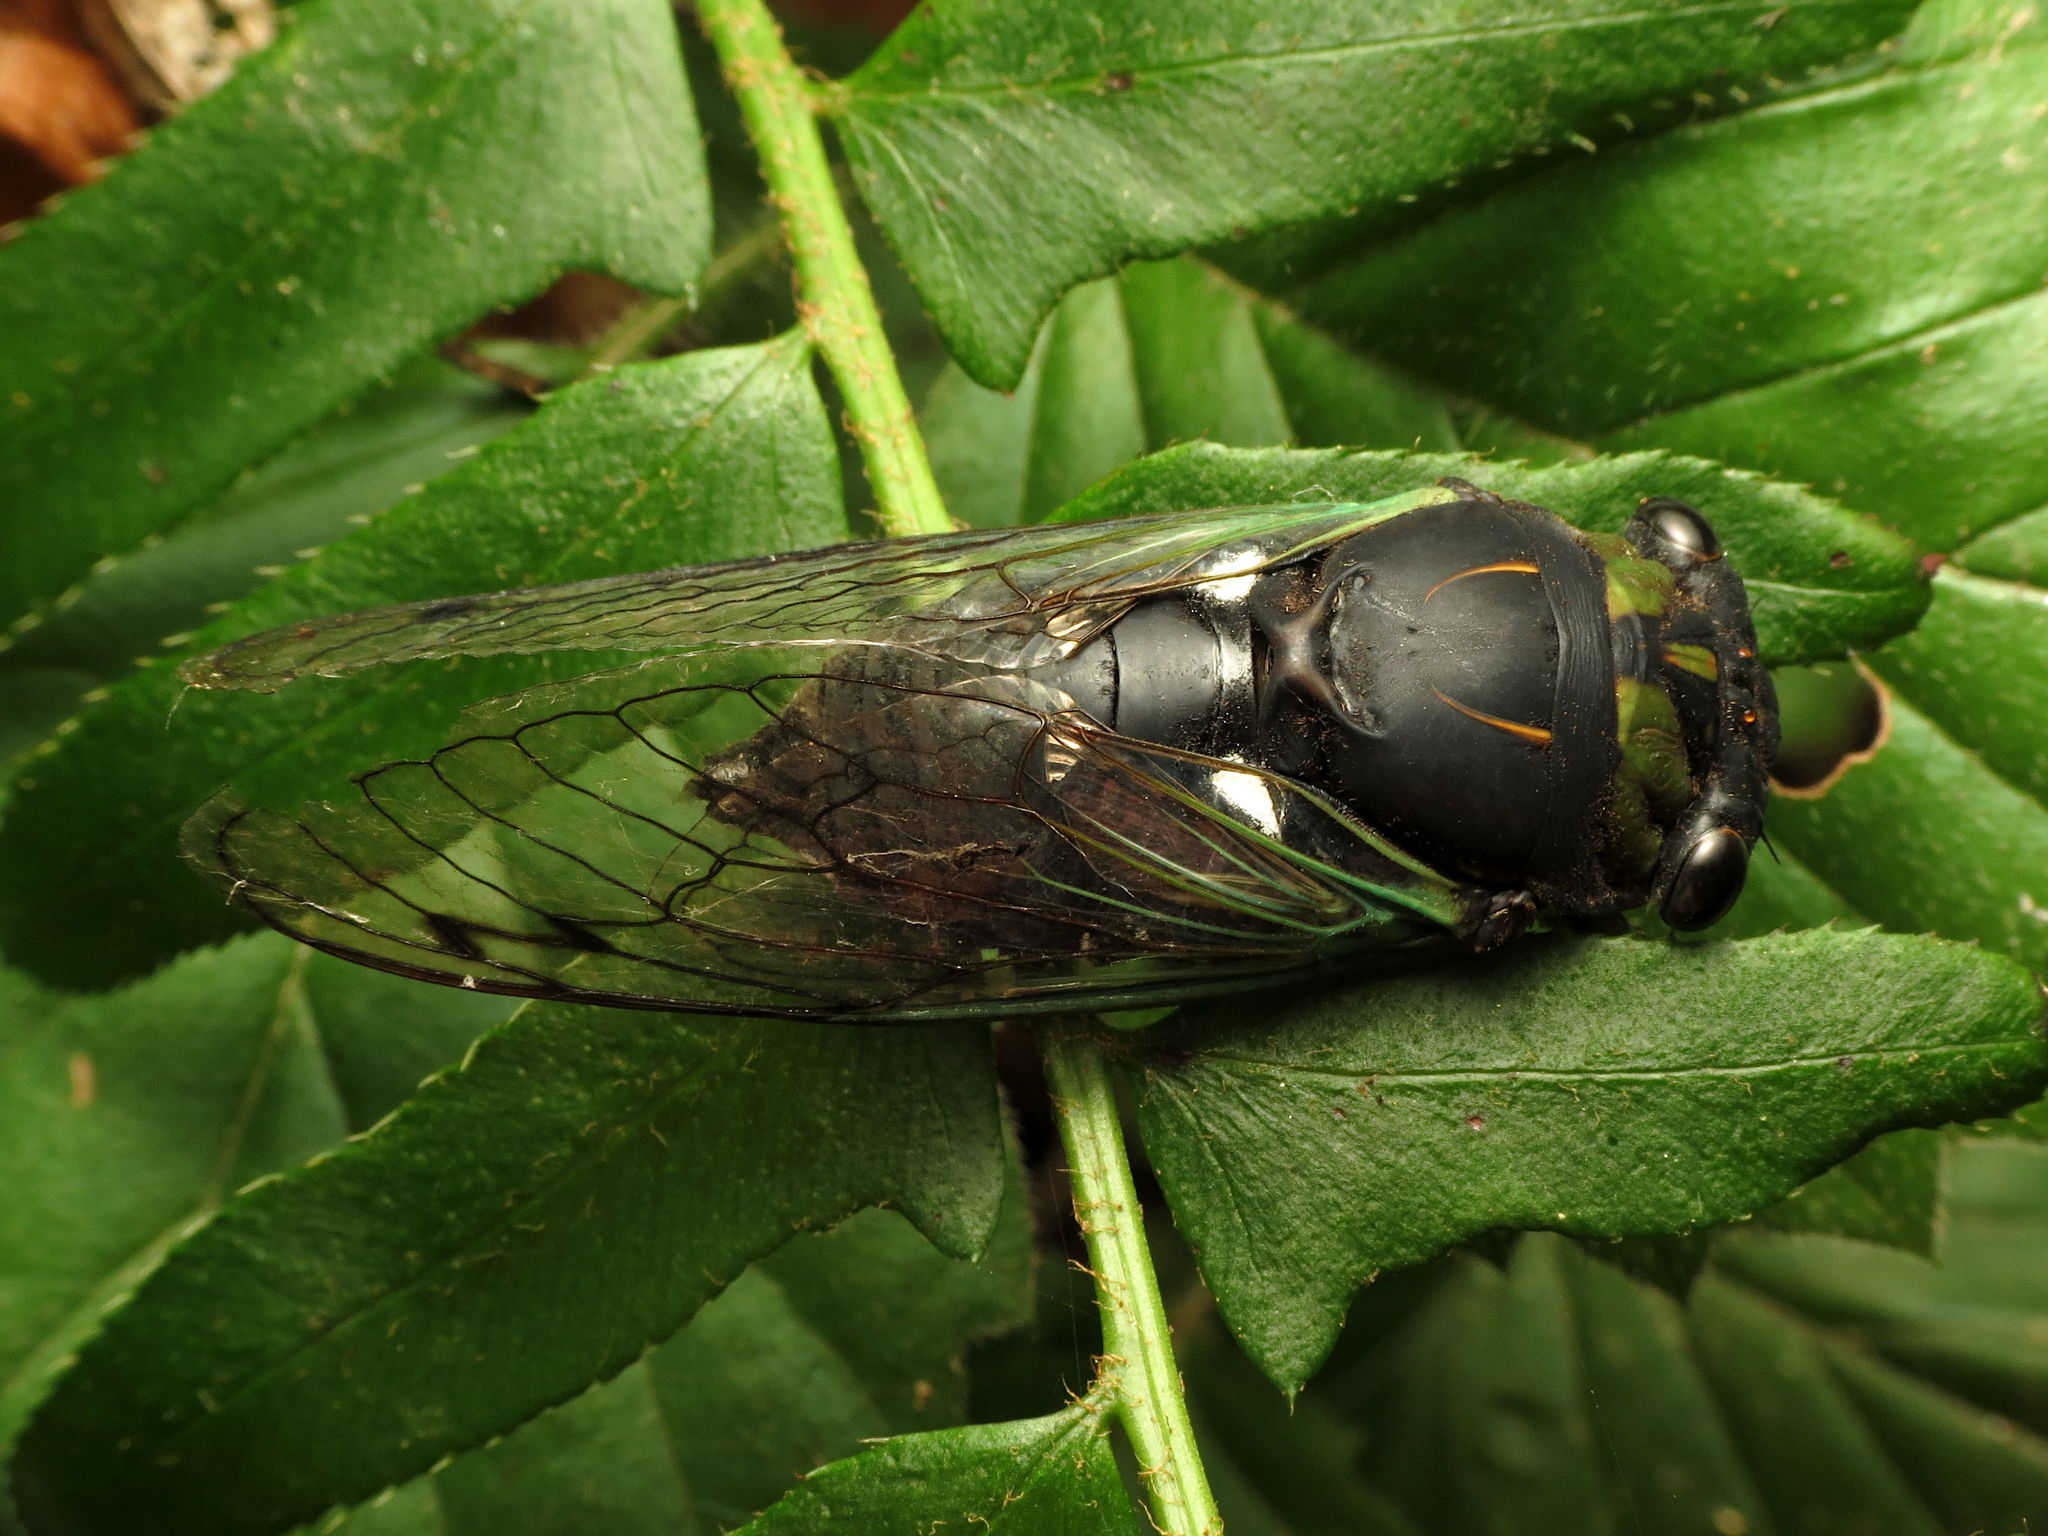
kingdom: Animalia
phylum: Arthropoda
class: Insecta
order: Hemiptera
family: Cicadidae
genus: Neotibicen
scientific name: Neotibicen tibicen
